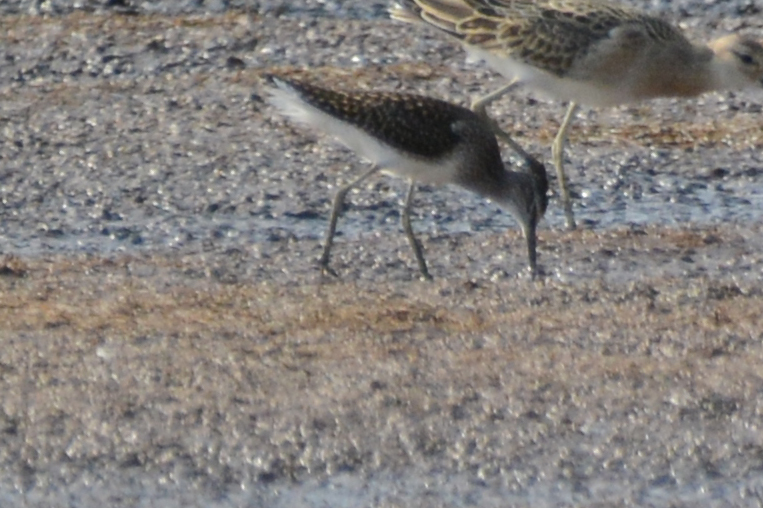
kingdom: Animalia
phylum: Chordata
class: Aves
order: Charadriiformes
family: Scolopacidae
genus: Tringa
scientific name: Tringa glareola
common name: Wood sandpiper
